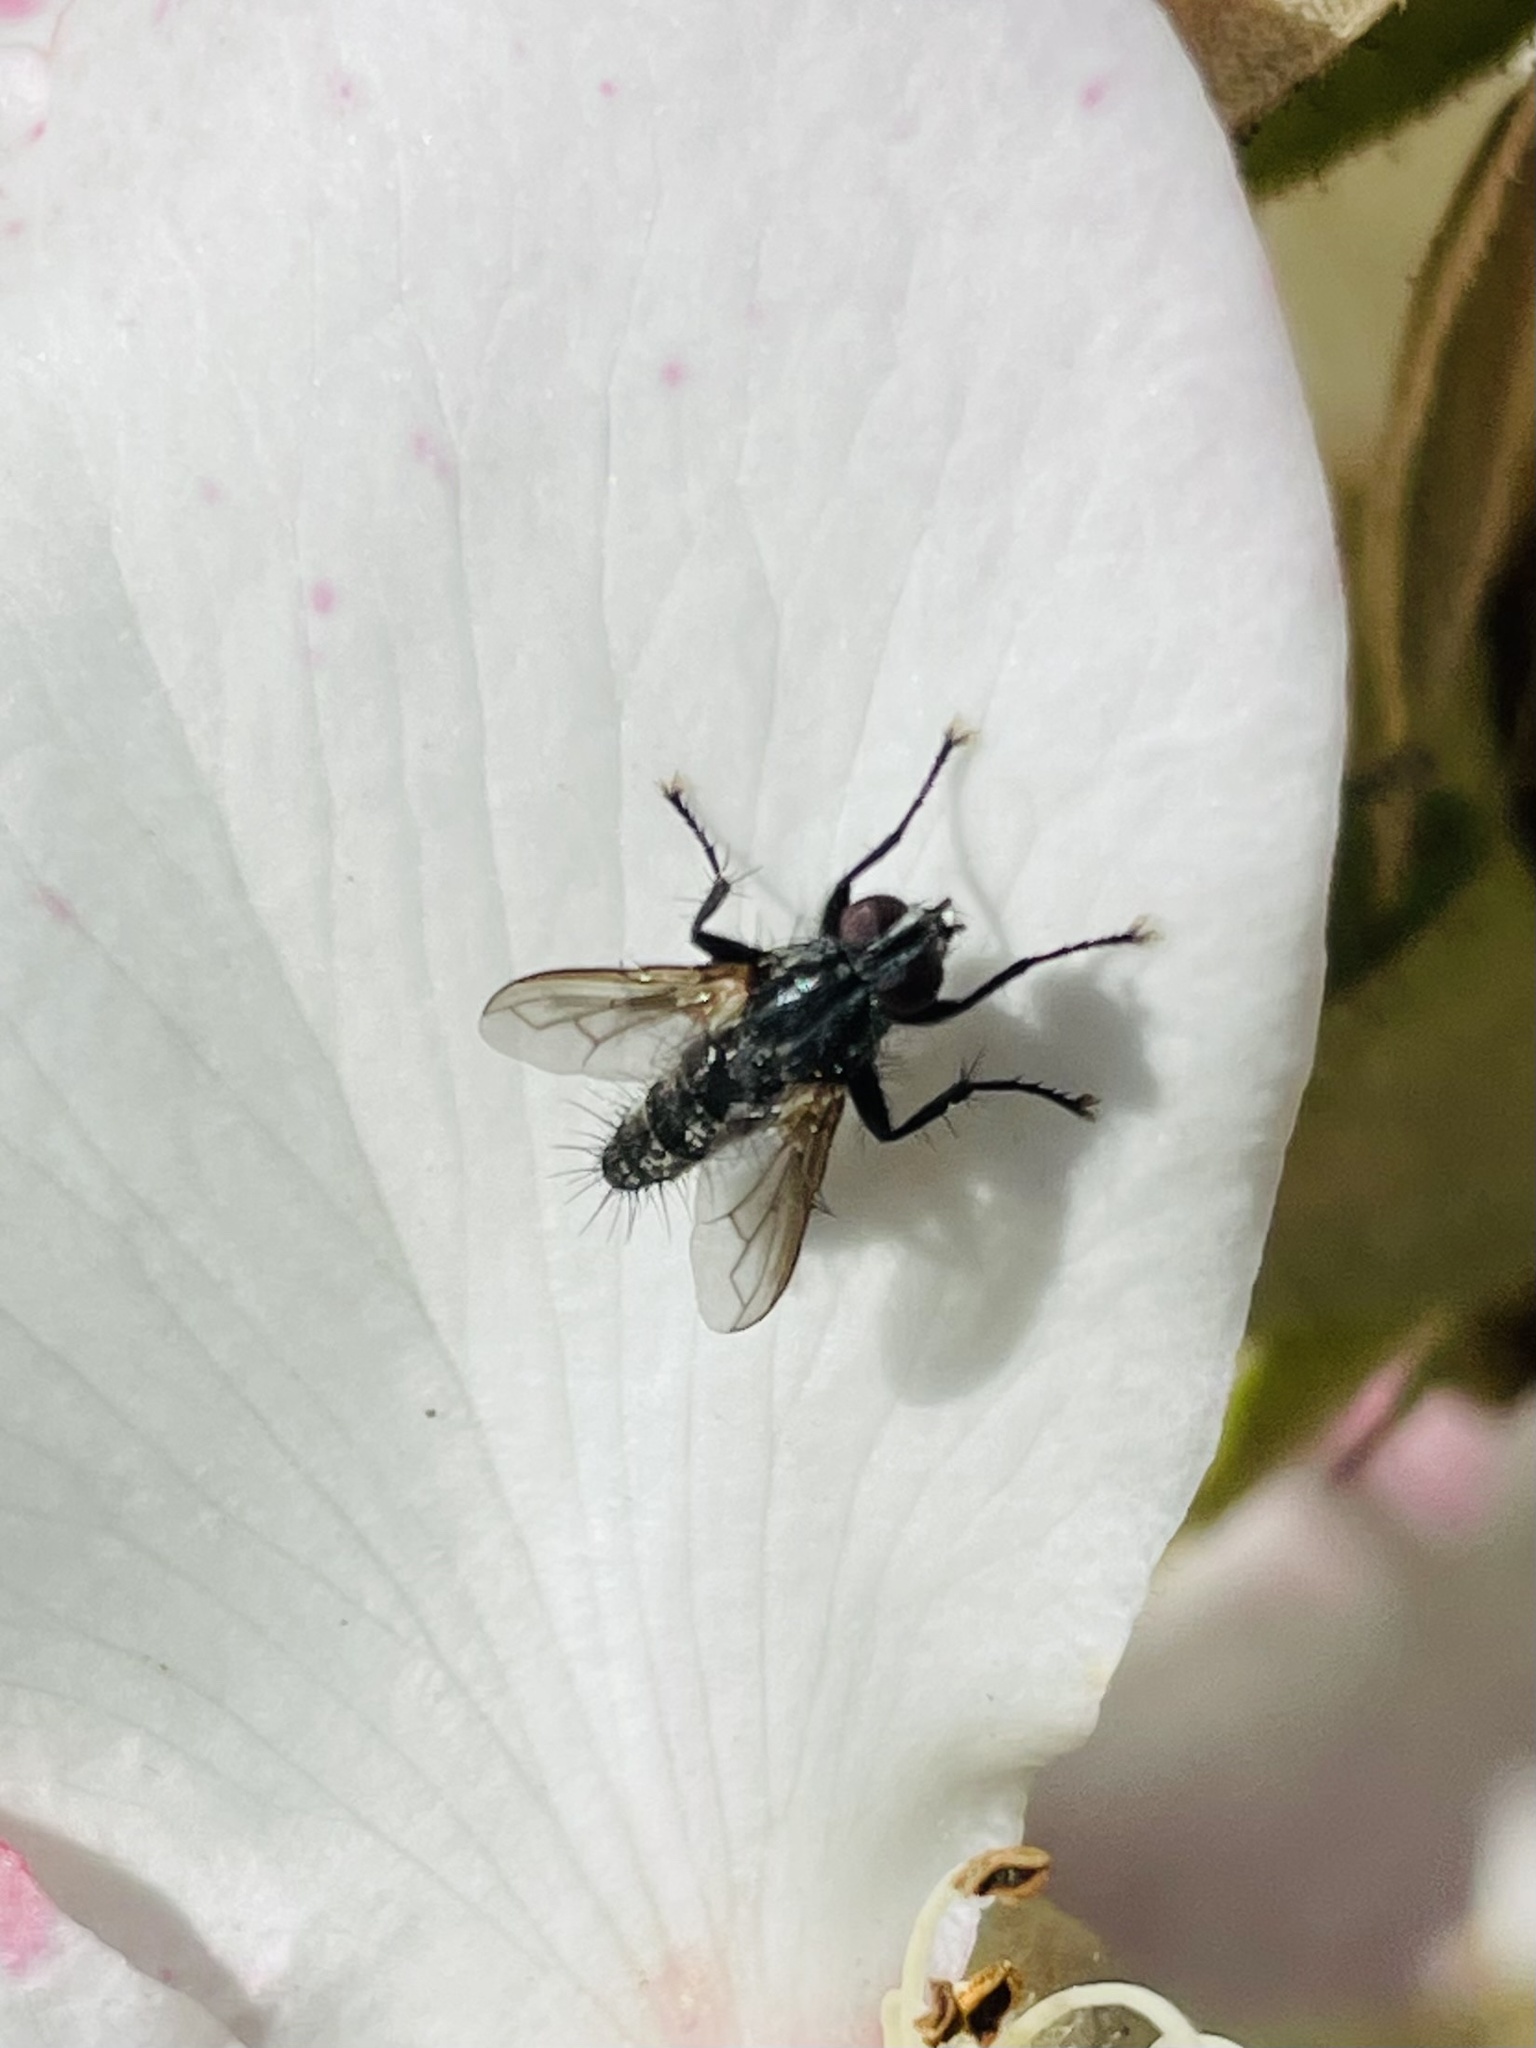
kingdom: Animalia
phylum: Arthropoda
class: Insecta
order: Diptera
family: Calliphoridae
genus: Stevenia
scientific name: Stevenia deceptoria
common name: Grizzled woodlouse-fly
